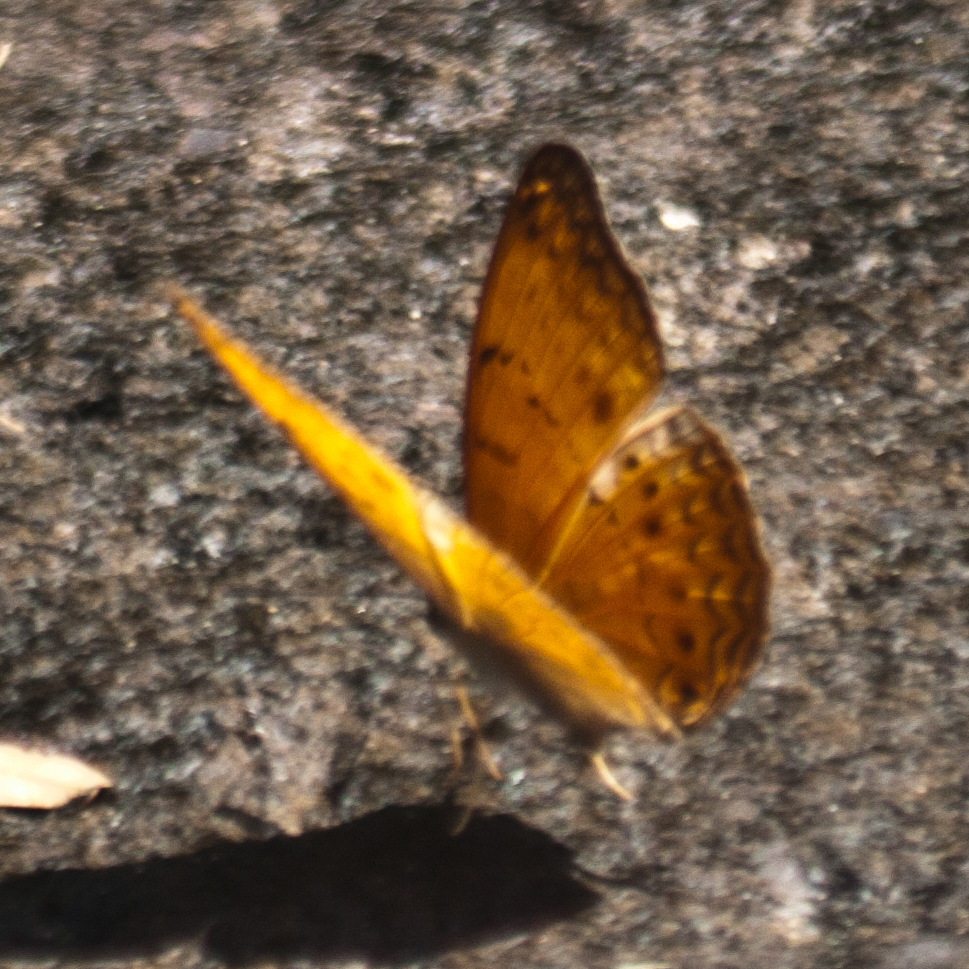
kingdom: Animalia
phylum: Arthropoda
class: Insecta
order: Lepidoptera
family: Nymphalidae
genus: Cirrochroa
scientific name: Cirrochroa tyche
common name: Common yeoman
